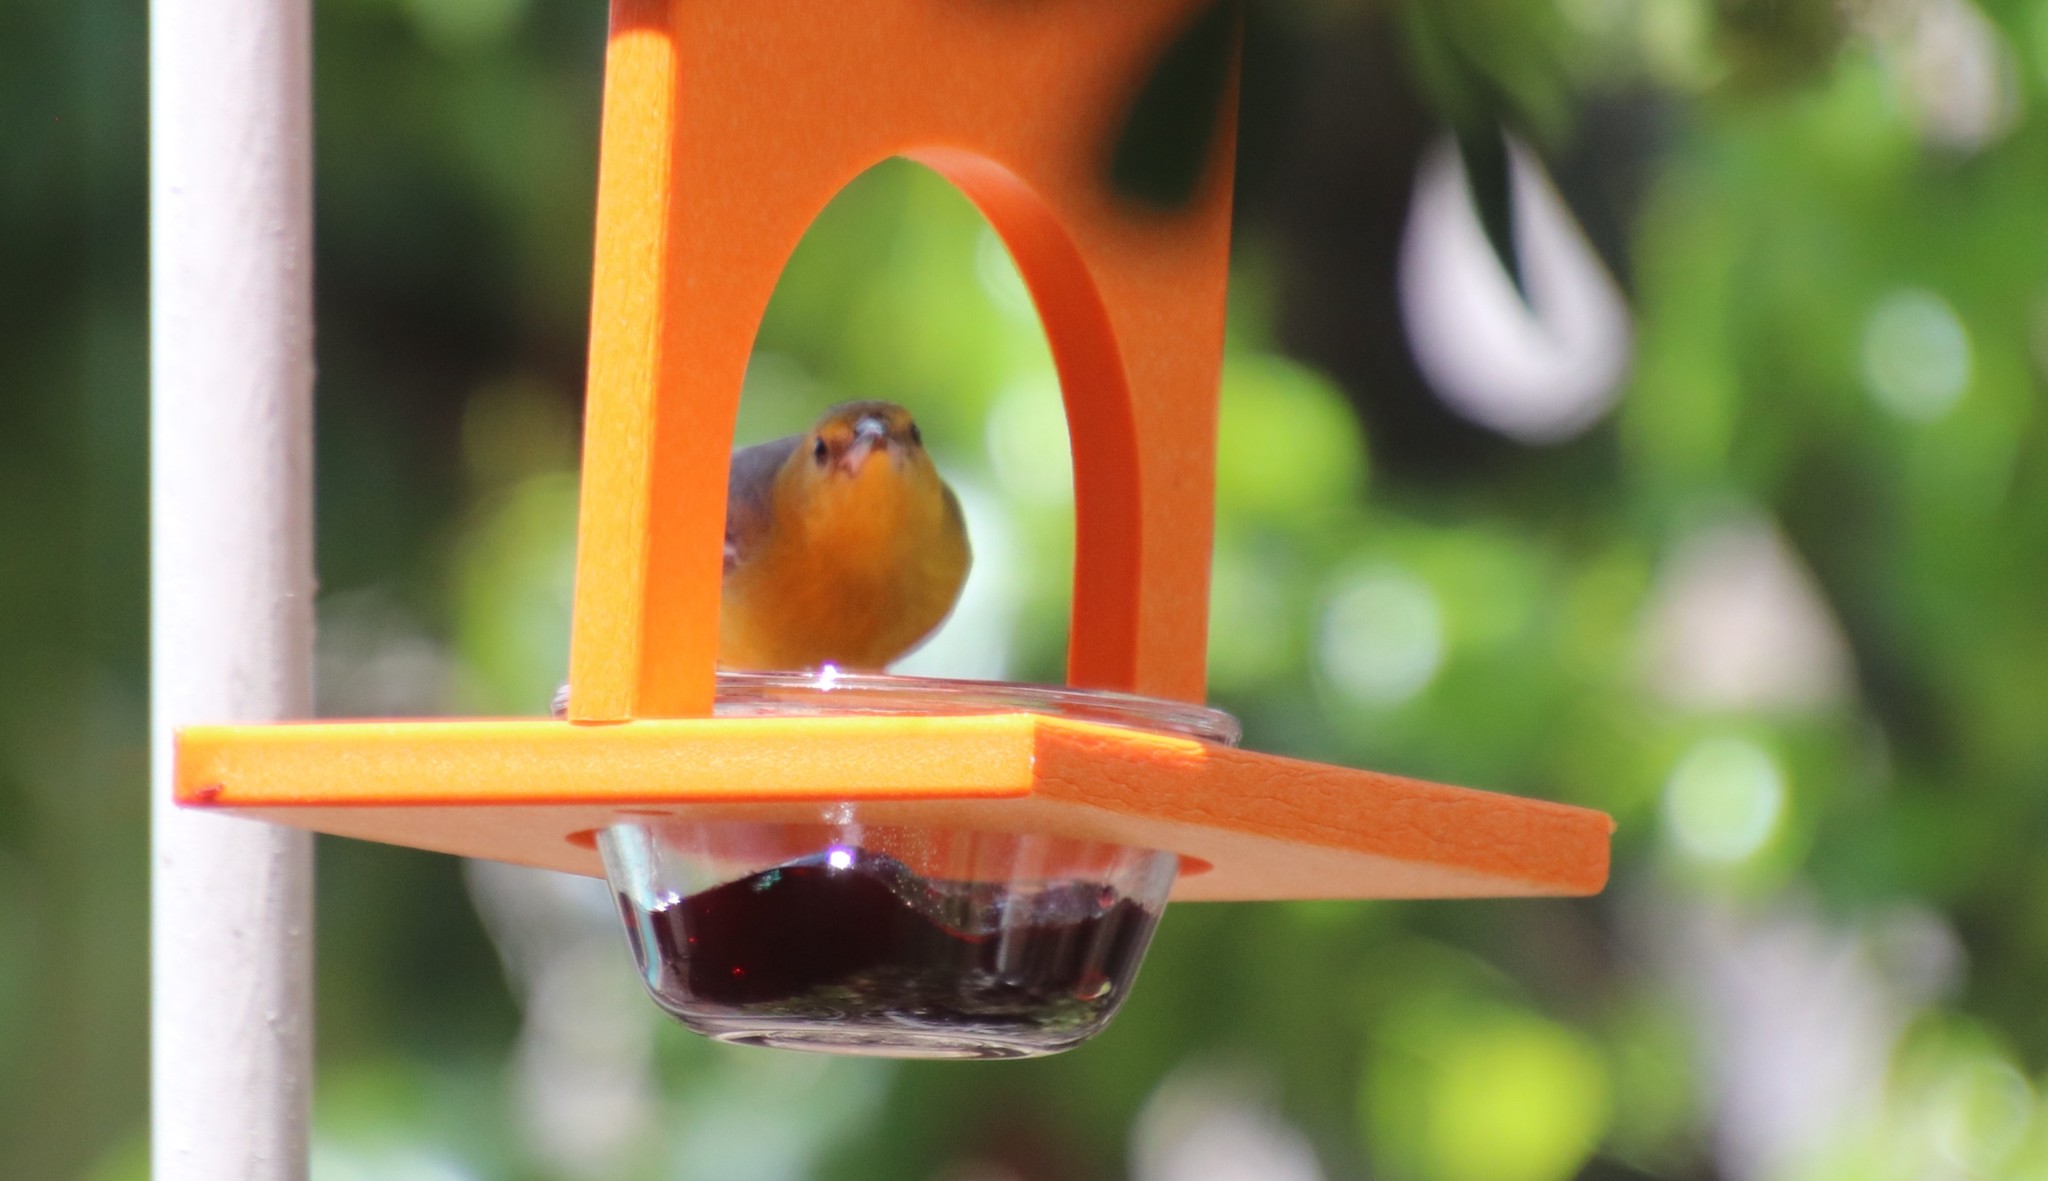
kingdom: Animalia
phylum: Chordata
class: Aves
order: Passeriformes
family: Icteridae
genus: Icterus
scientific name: Icterus cucullatus
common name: Hooded oriole
